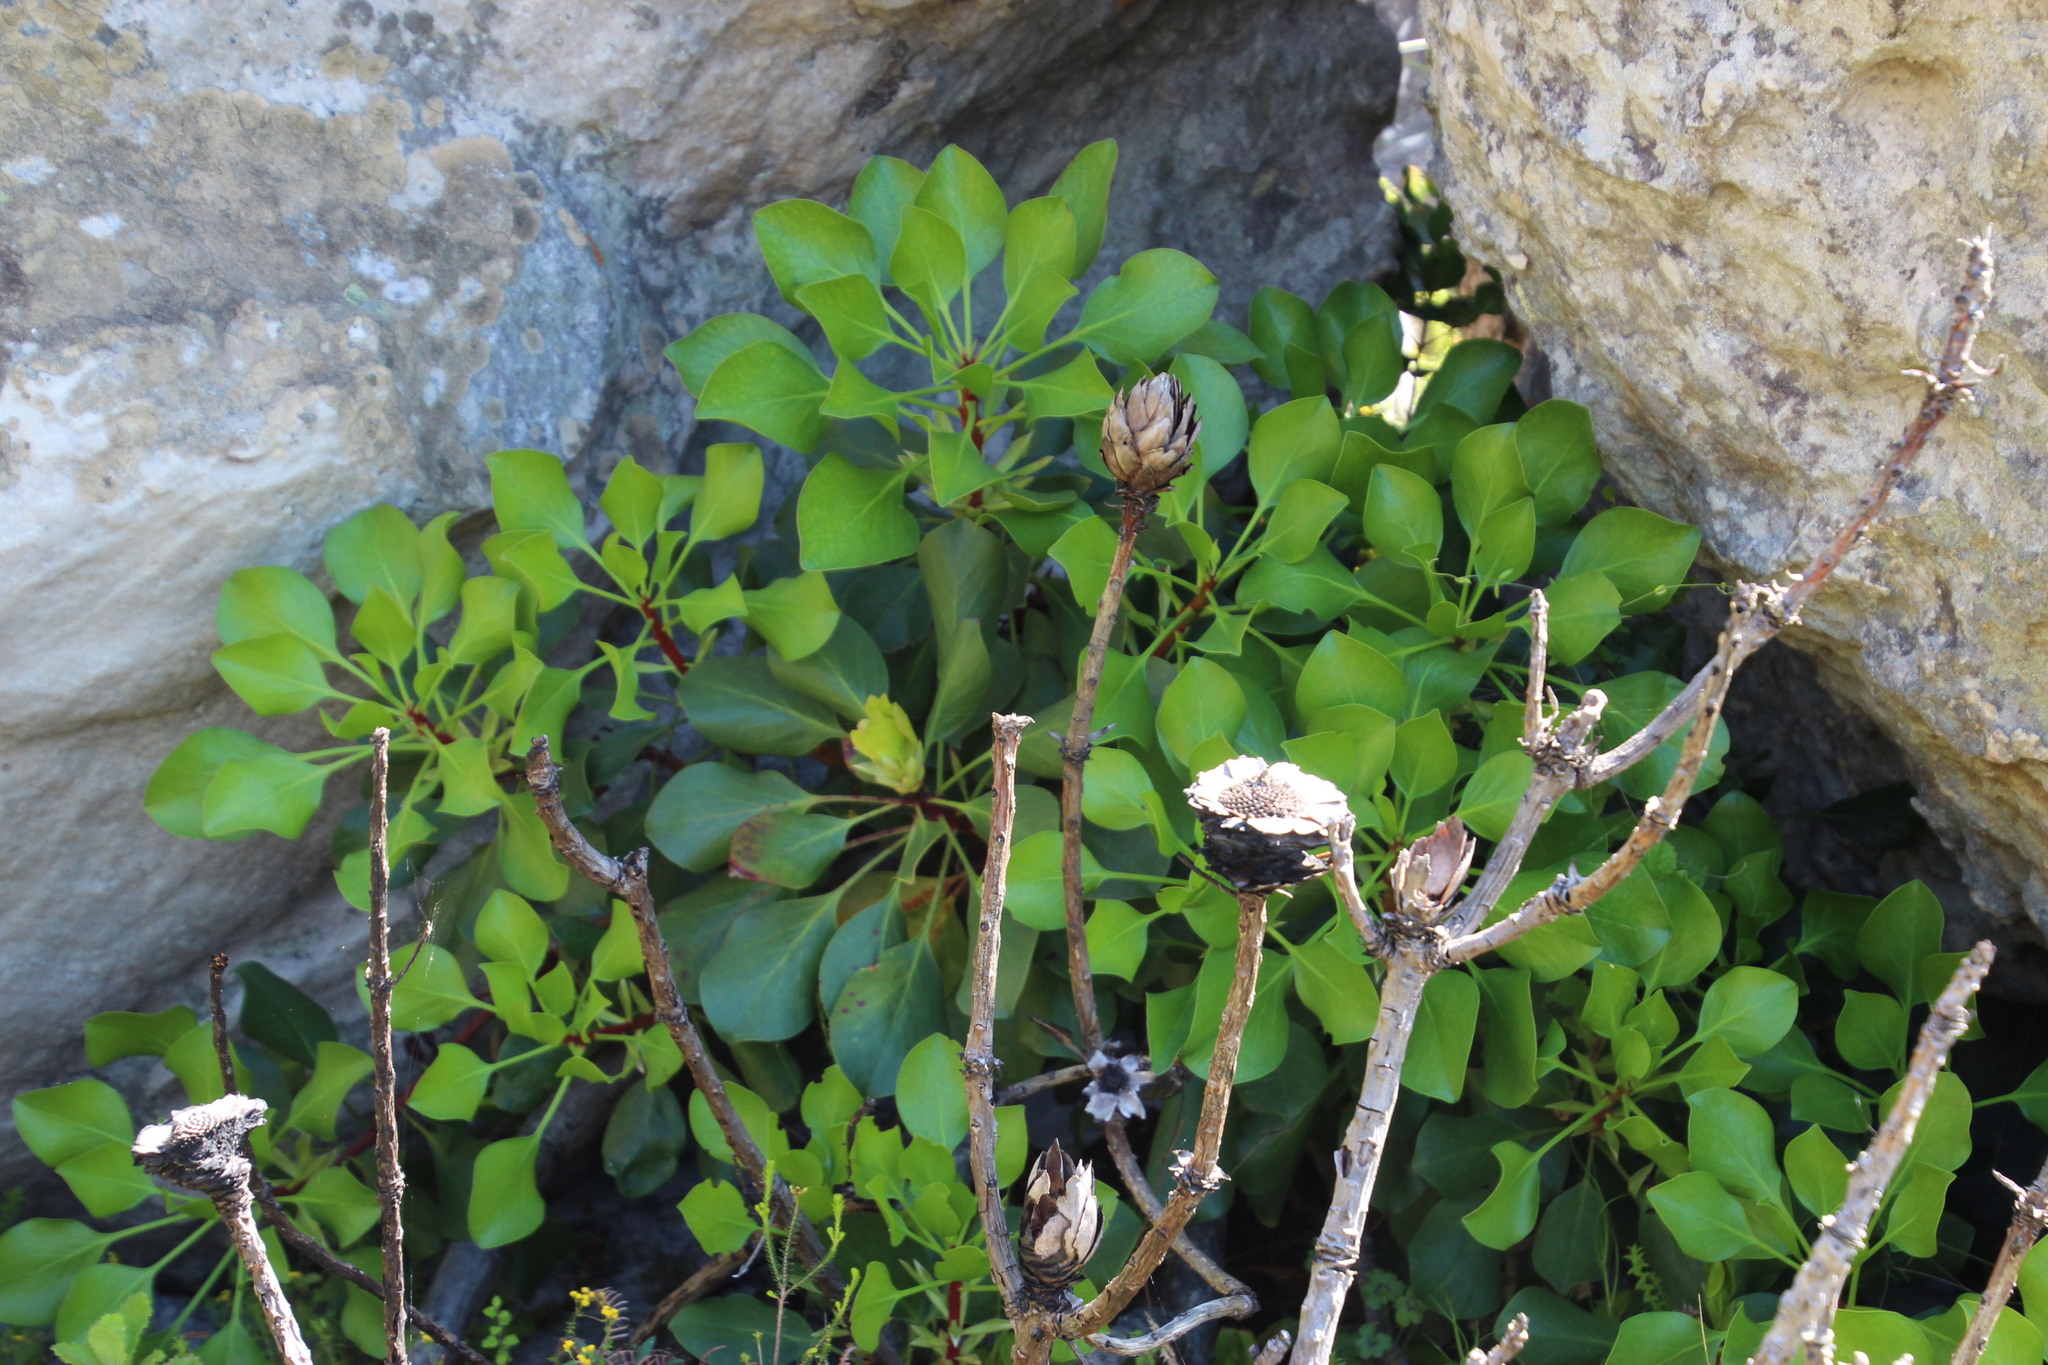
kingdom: Plantae
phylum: Tracheophyta
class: Magnoliopsida
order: Proteales
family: Proteaceae
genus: Protea
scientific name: Protea cynaroides
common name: King protea
